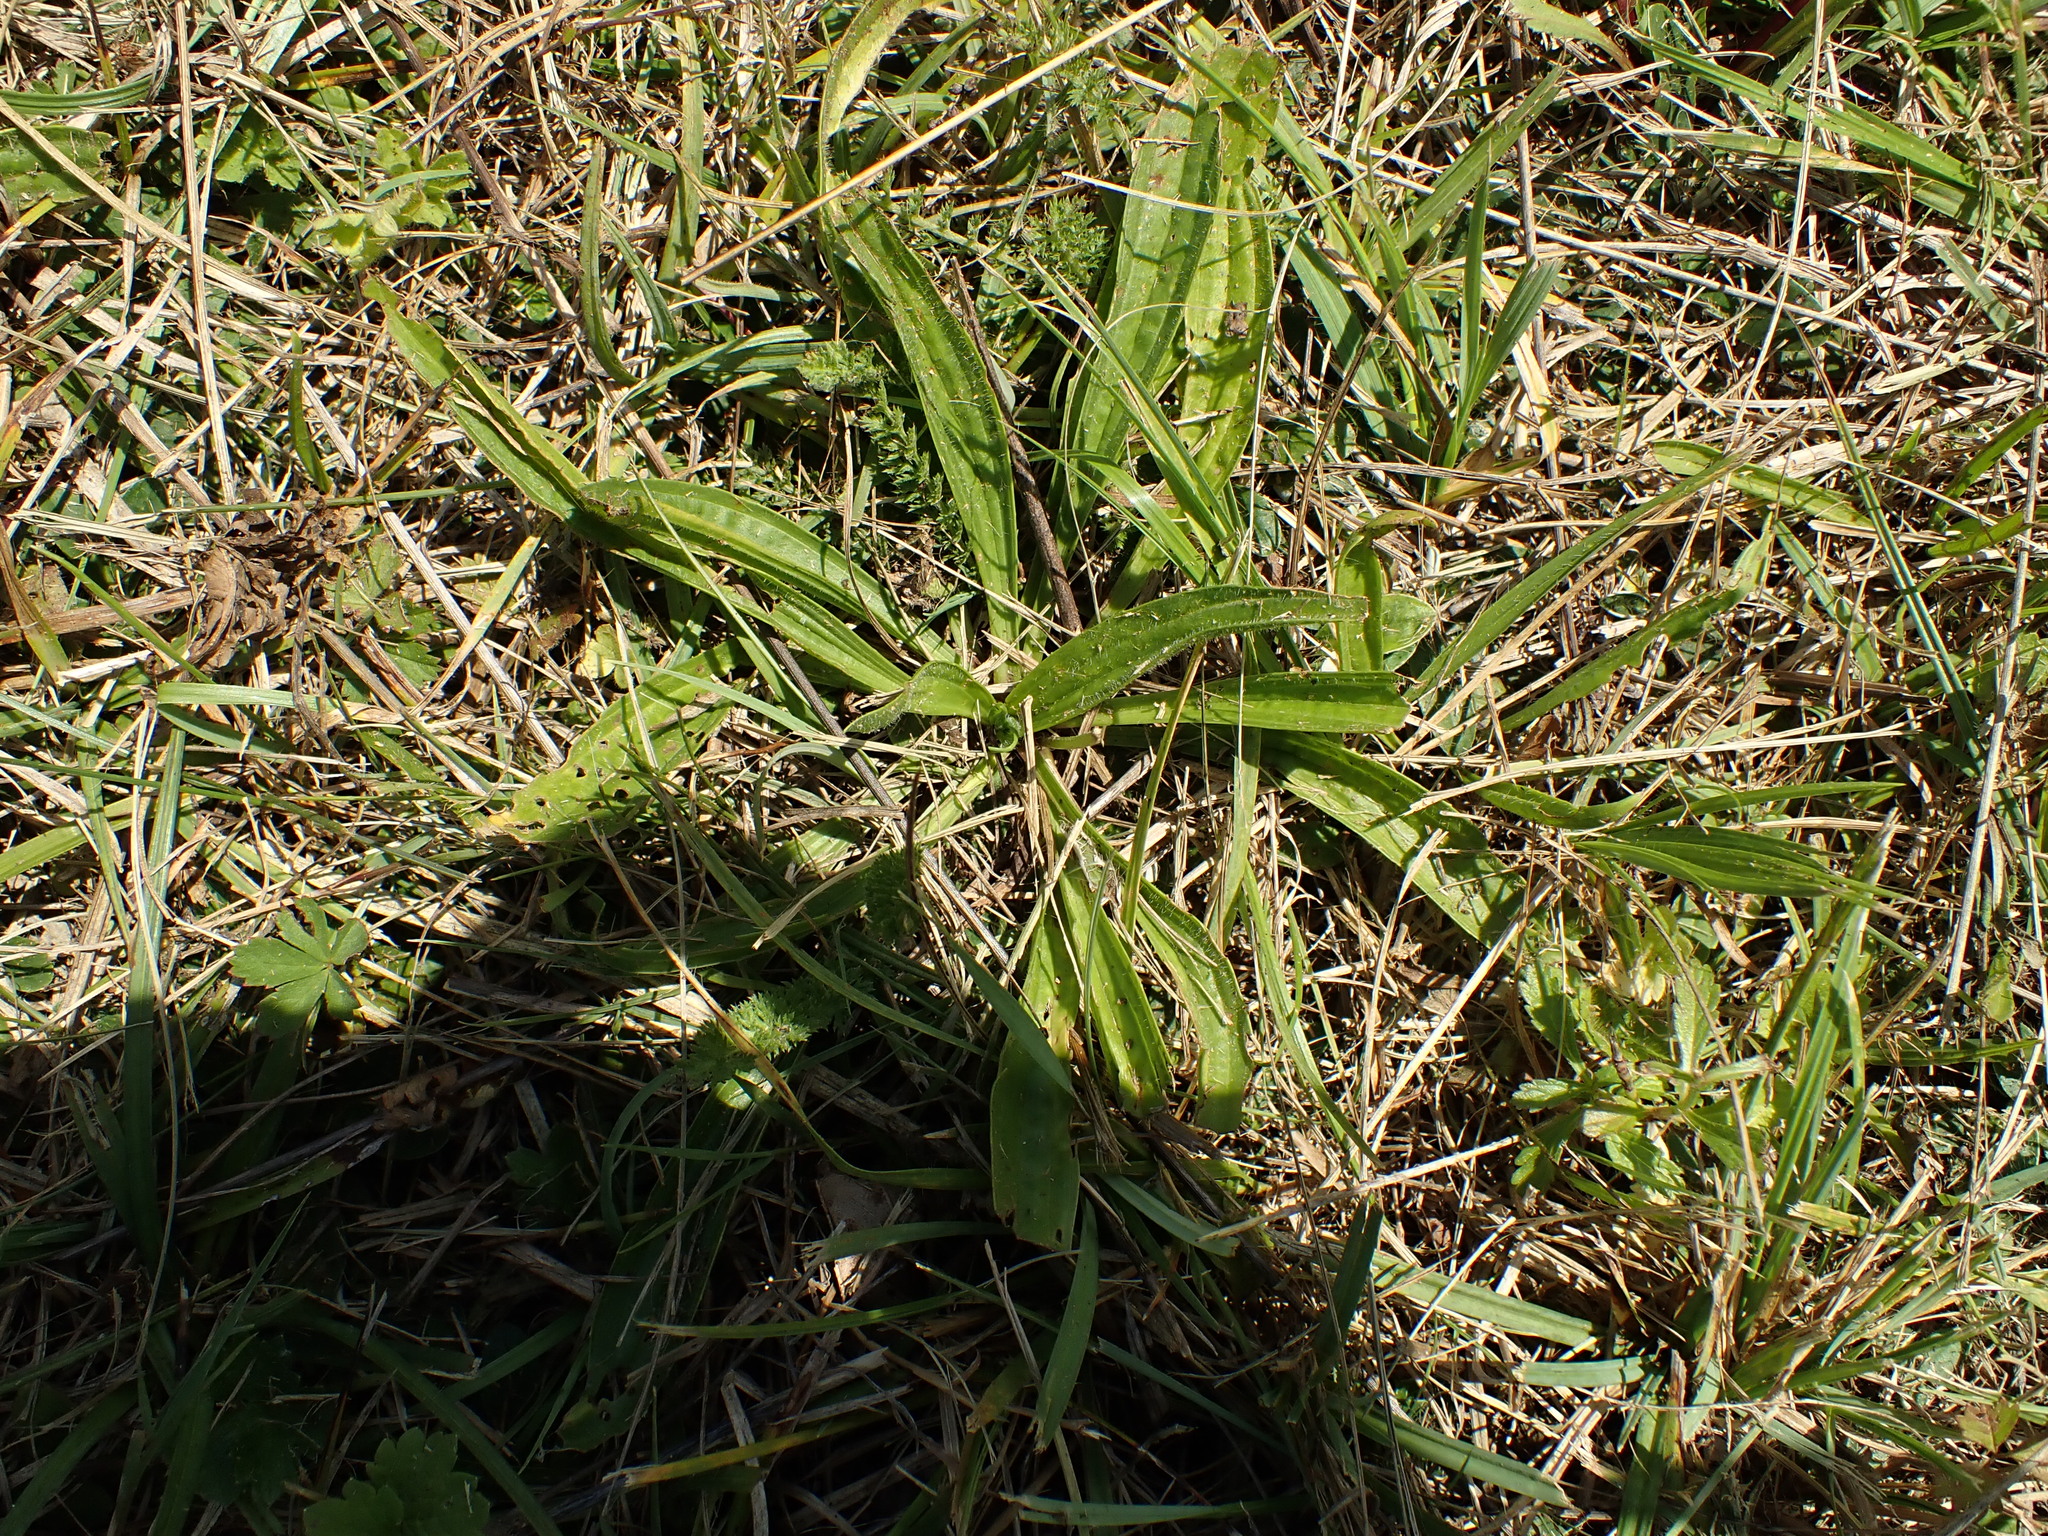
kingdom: Plantae
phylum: Tracheophyta
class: Magnoliopsida
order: Lamiales
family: Plantaginaceae
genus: Plantago
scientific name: Plantago lanceolata
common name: Ribwort plantain
